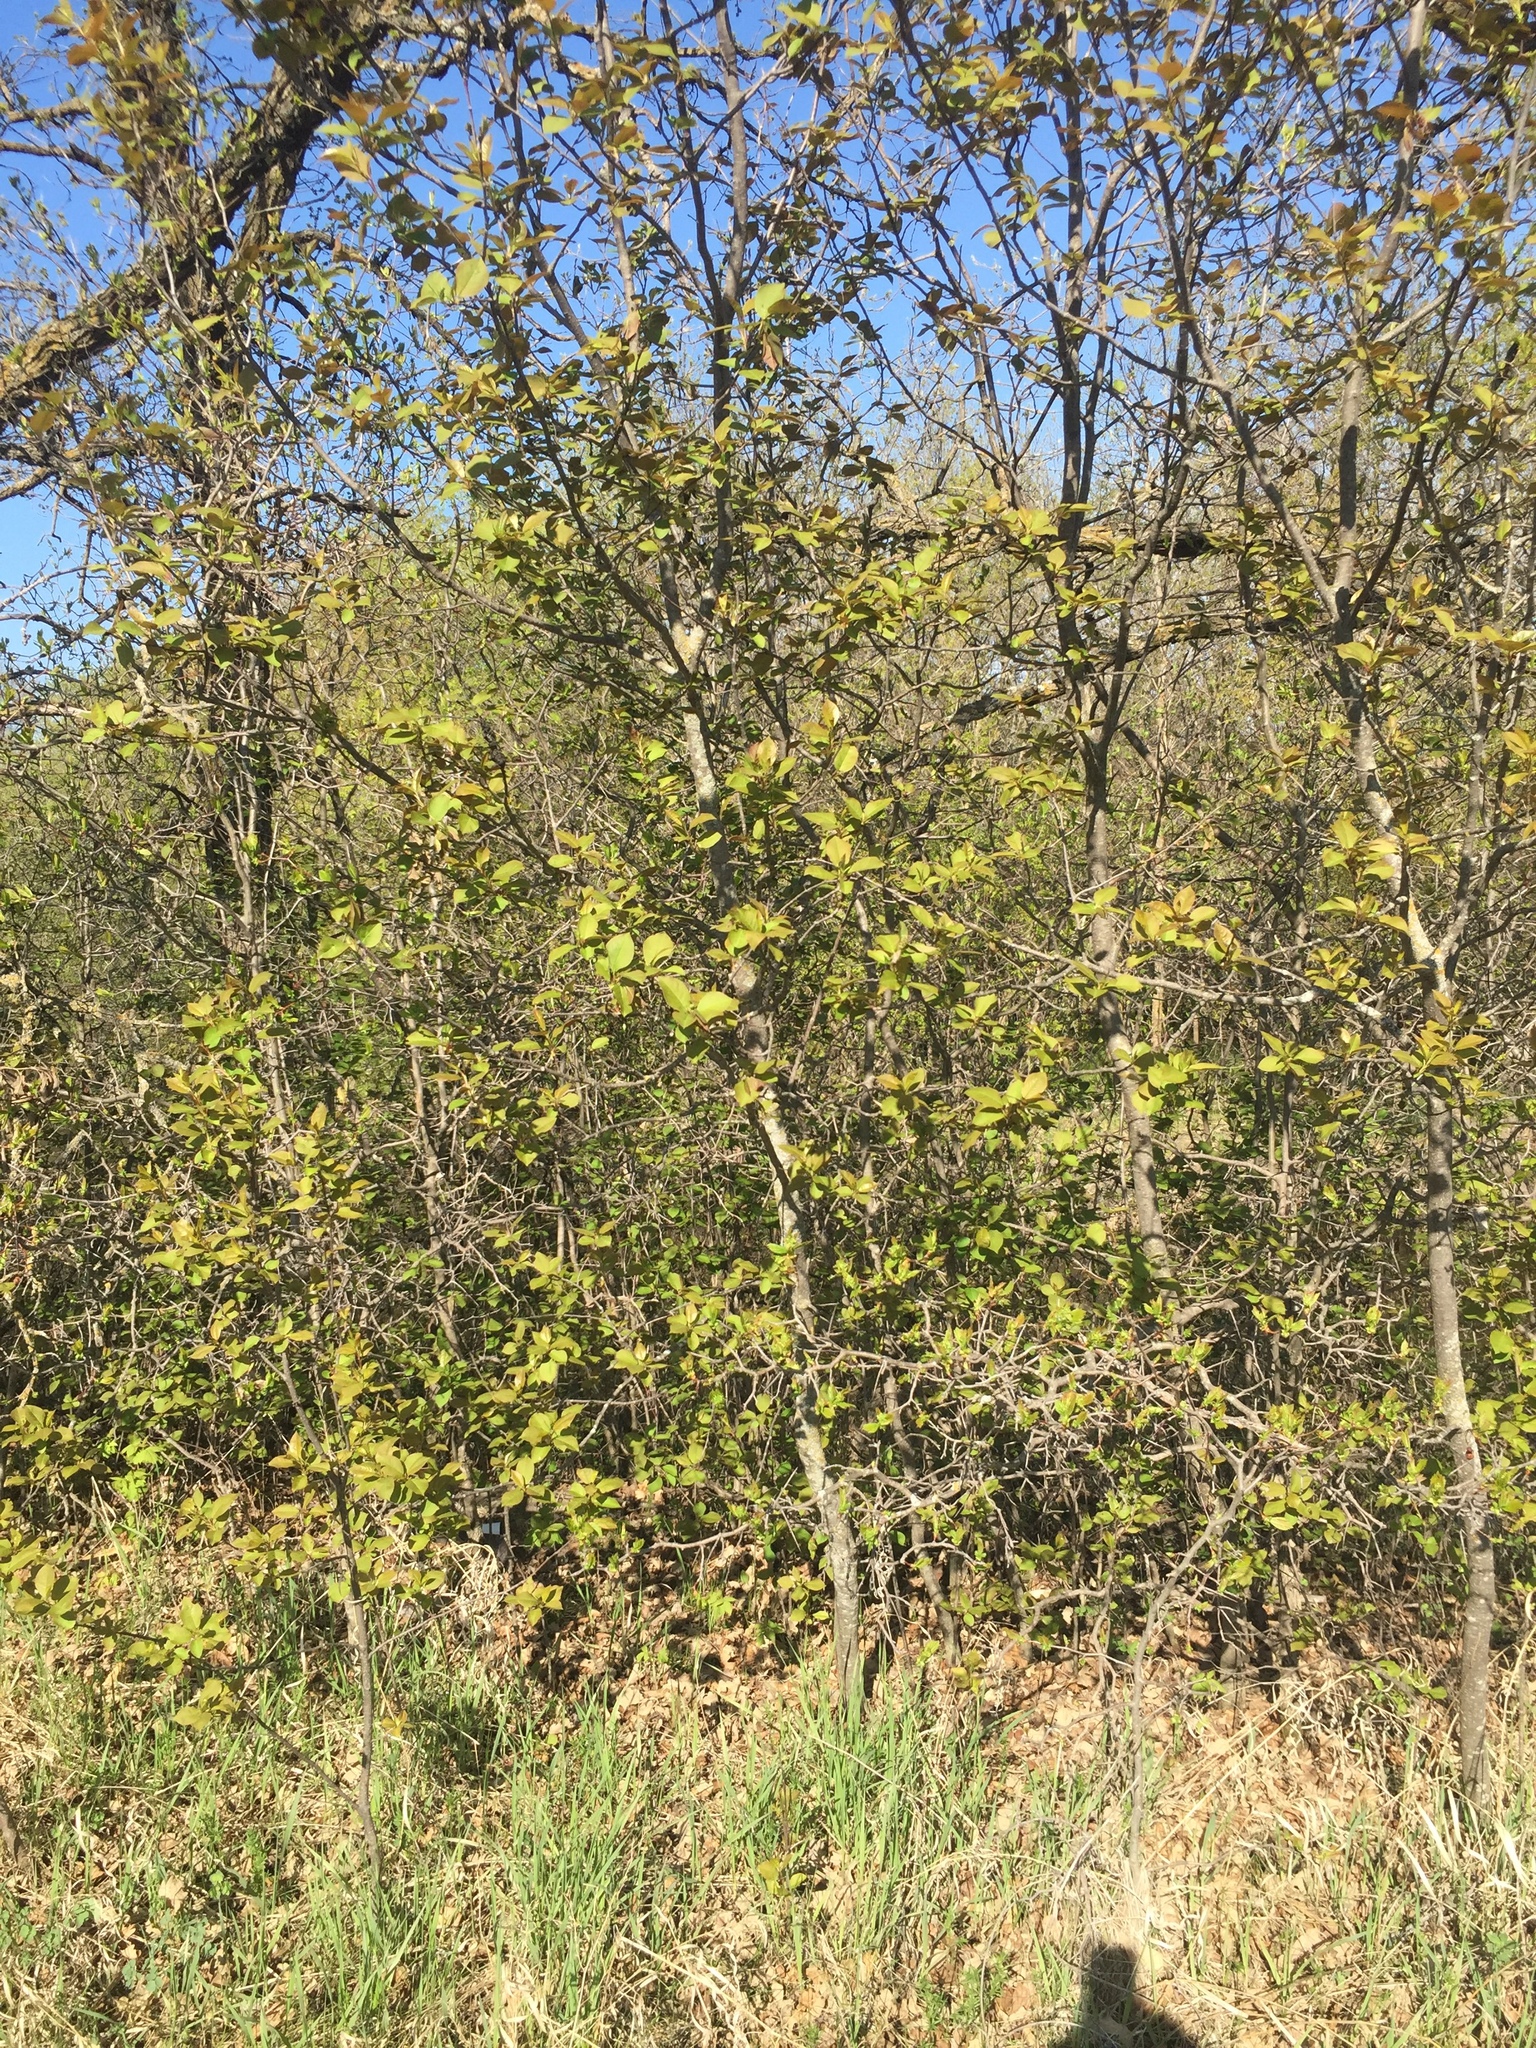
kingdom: Plantae
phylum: Tracheophyta
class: Magnoliopsida
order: Rosales
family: Rosaceae
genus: Prunus
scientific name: Prunus virginiana
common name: Chokecherry
